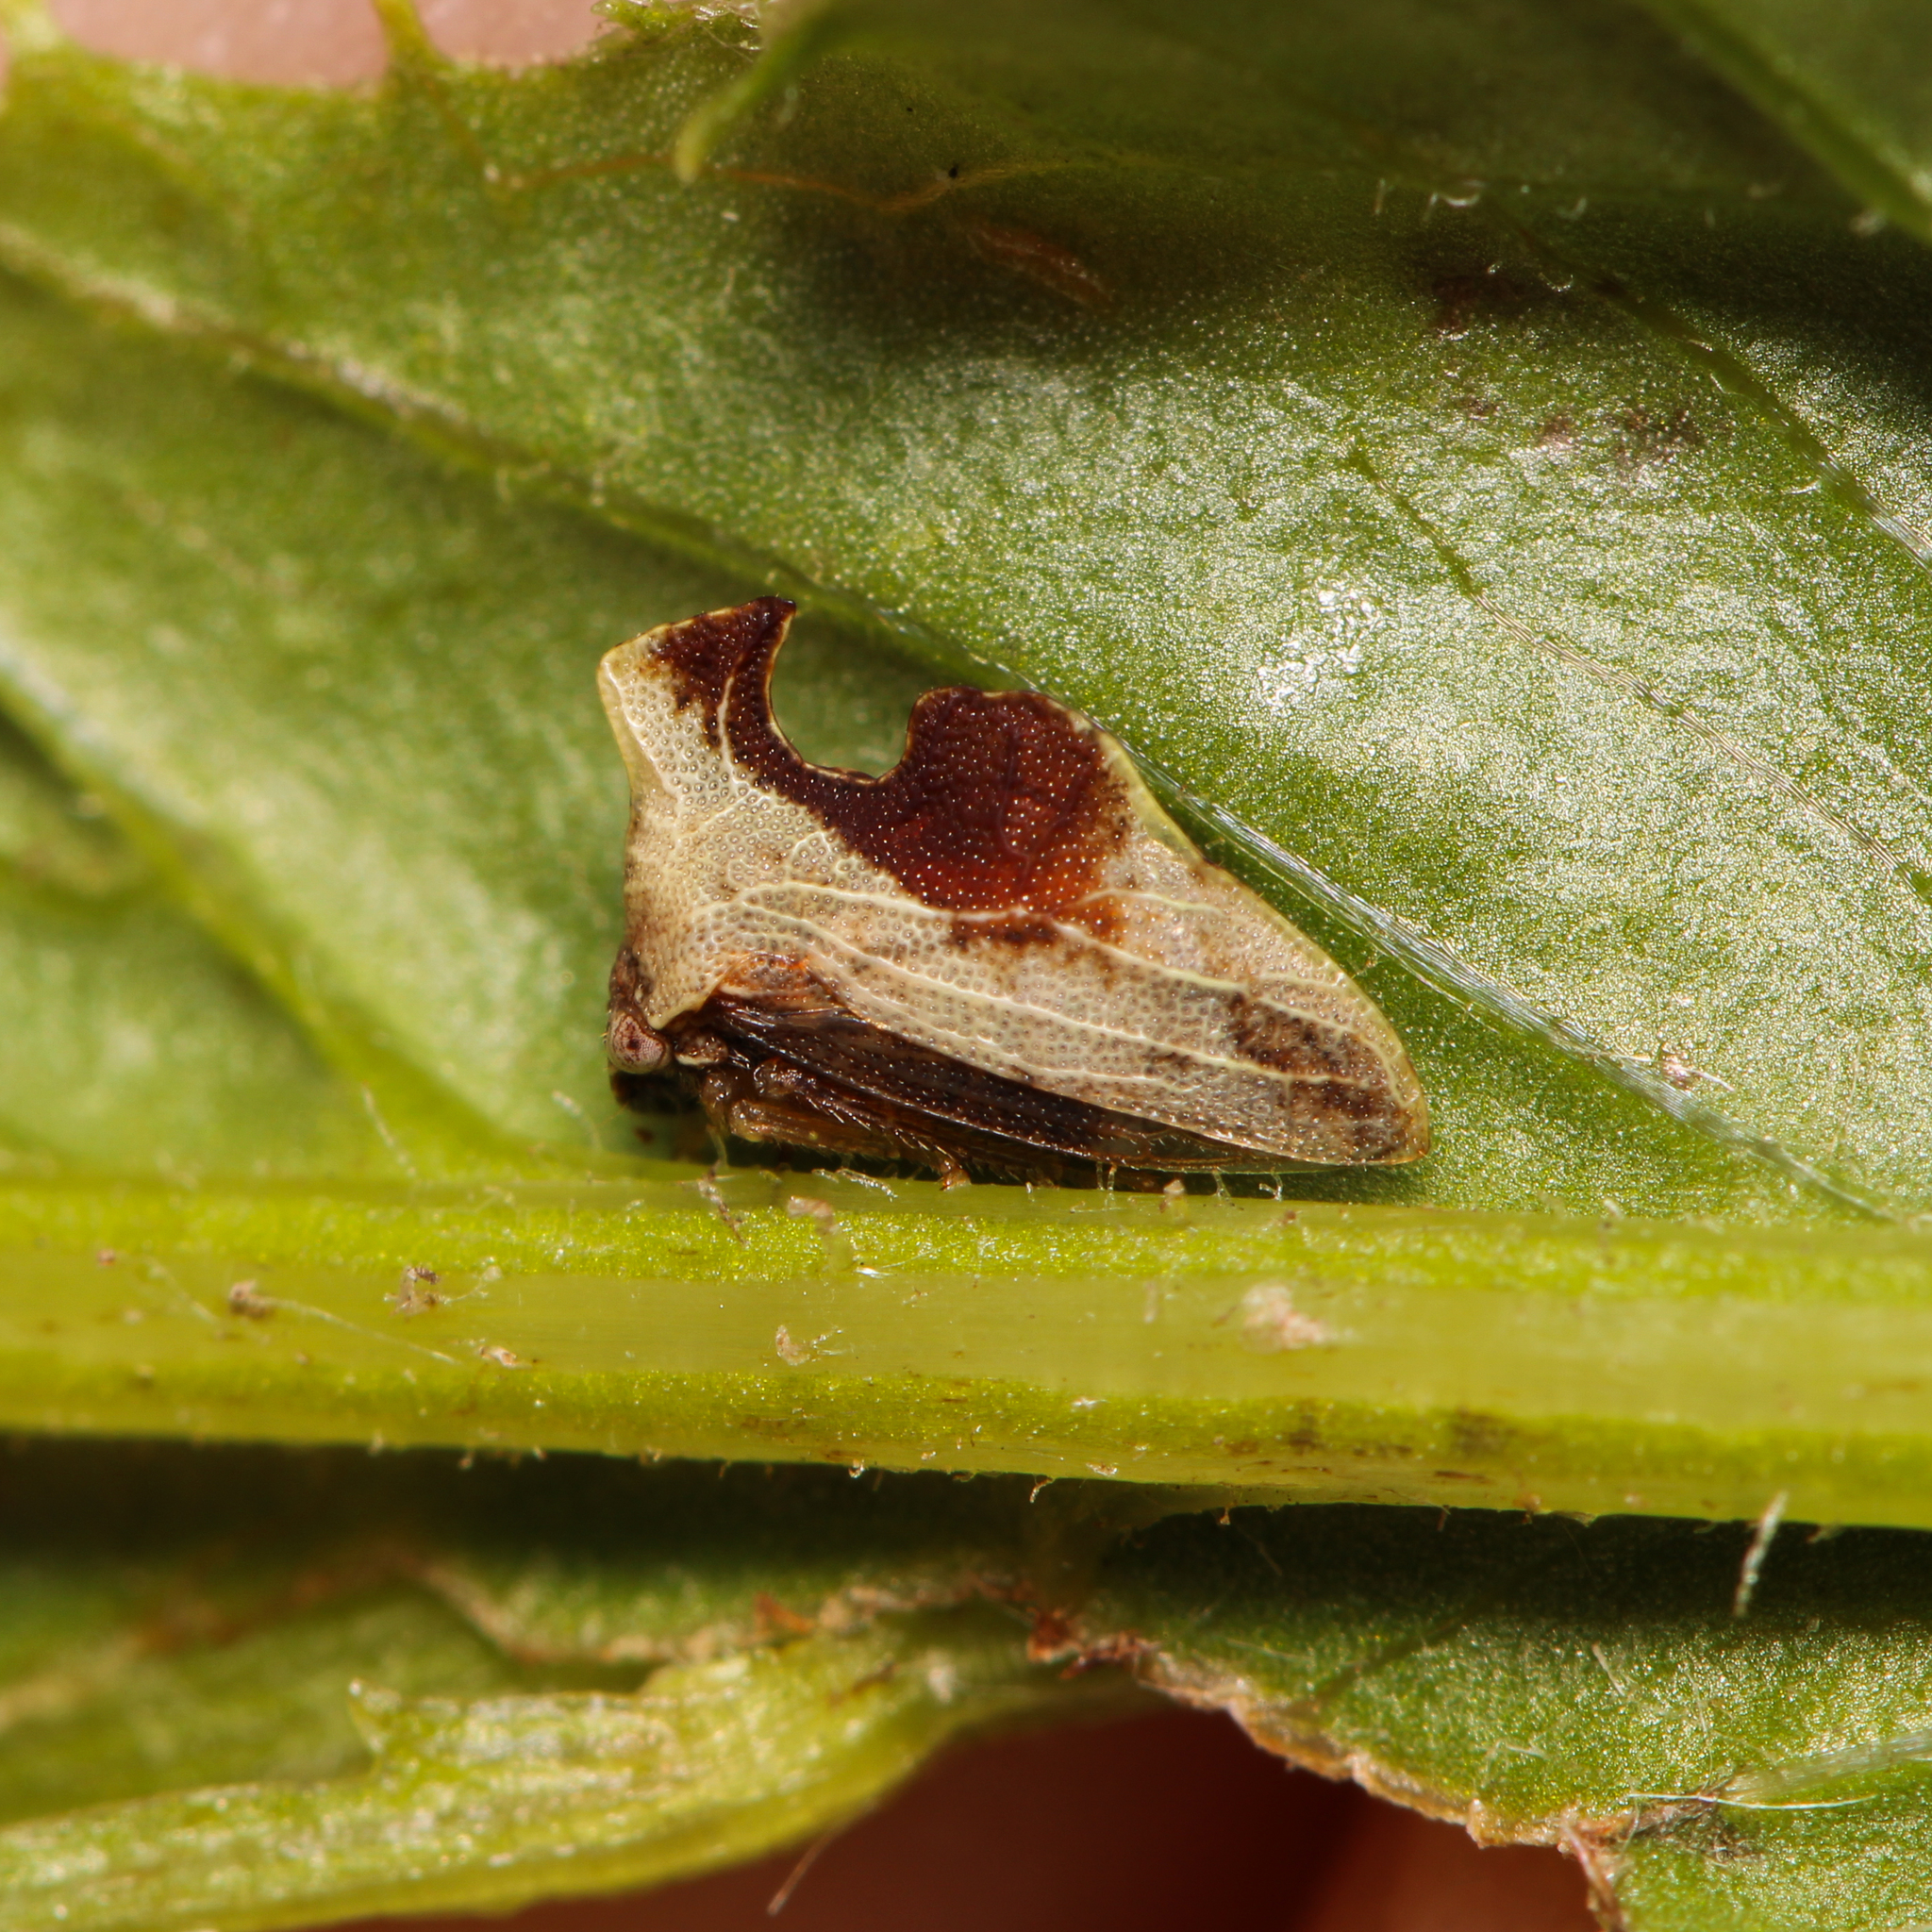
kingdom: Animalia
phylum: Arthropoda
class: Insecta
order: Hemiptera
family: Membracidae
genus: Entylia
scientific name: Entylia carinata
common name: Keeled treehopper
